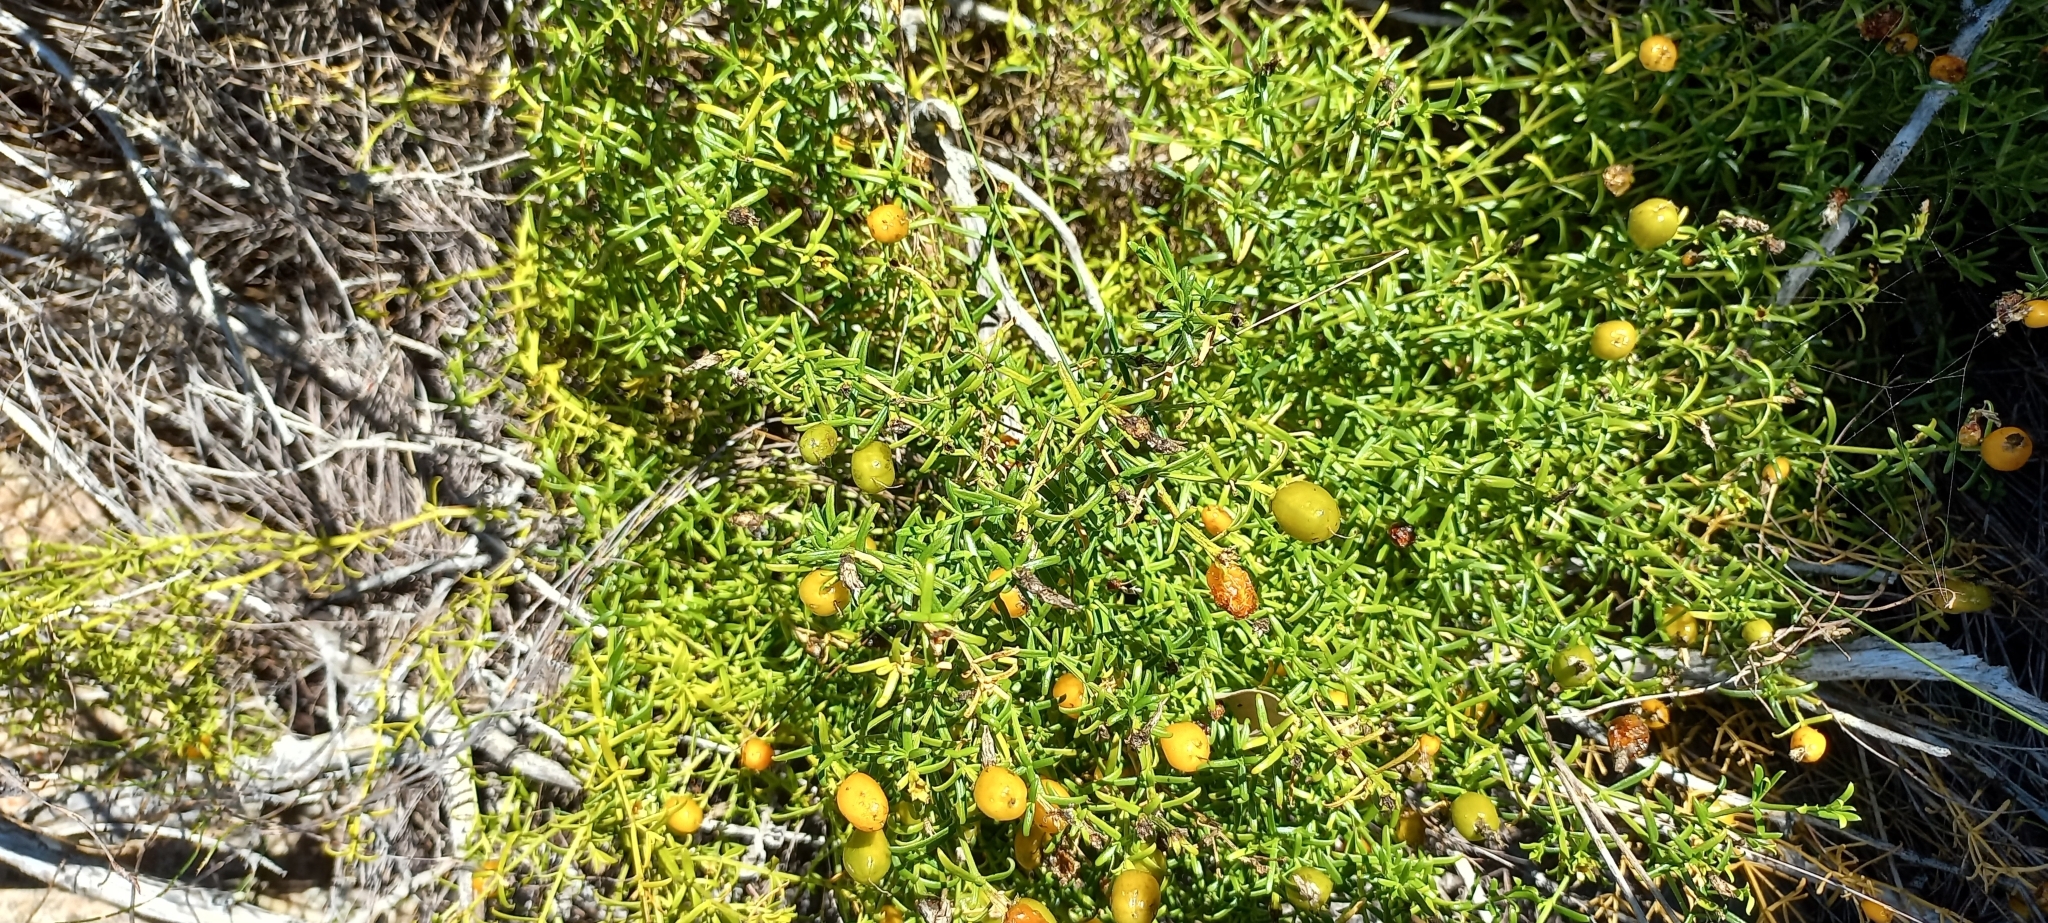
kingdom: Plantae
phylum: Tracheophyta
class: Magnoliopsida
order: Gentianales
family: Gentianaceae
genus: Chironia
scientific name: Chironia baccifera
